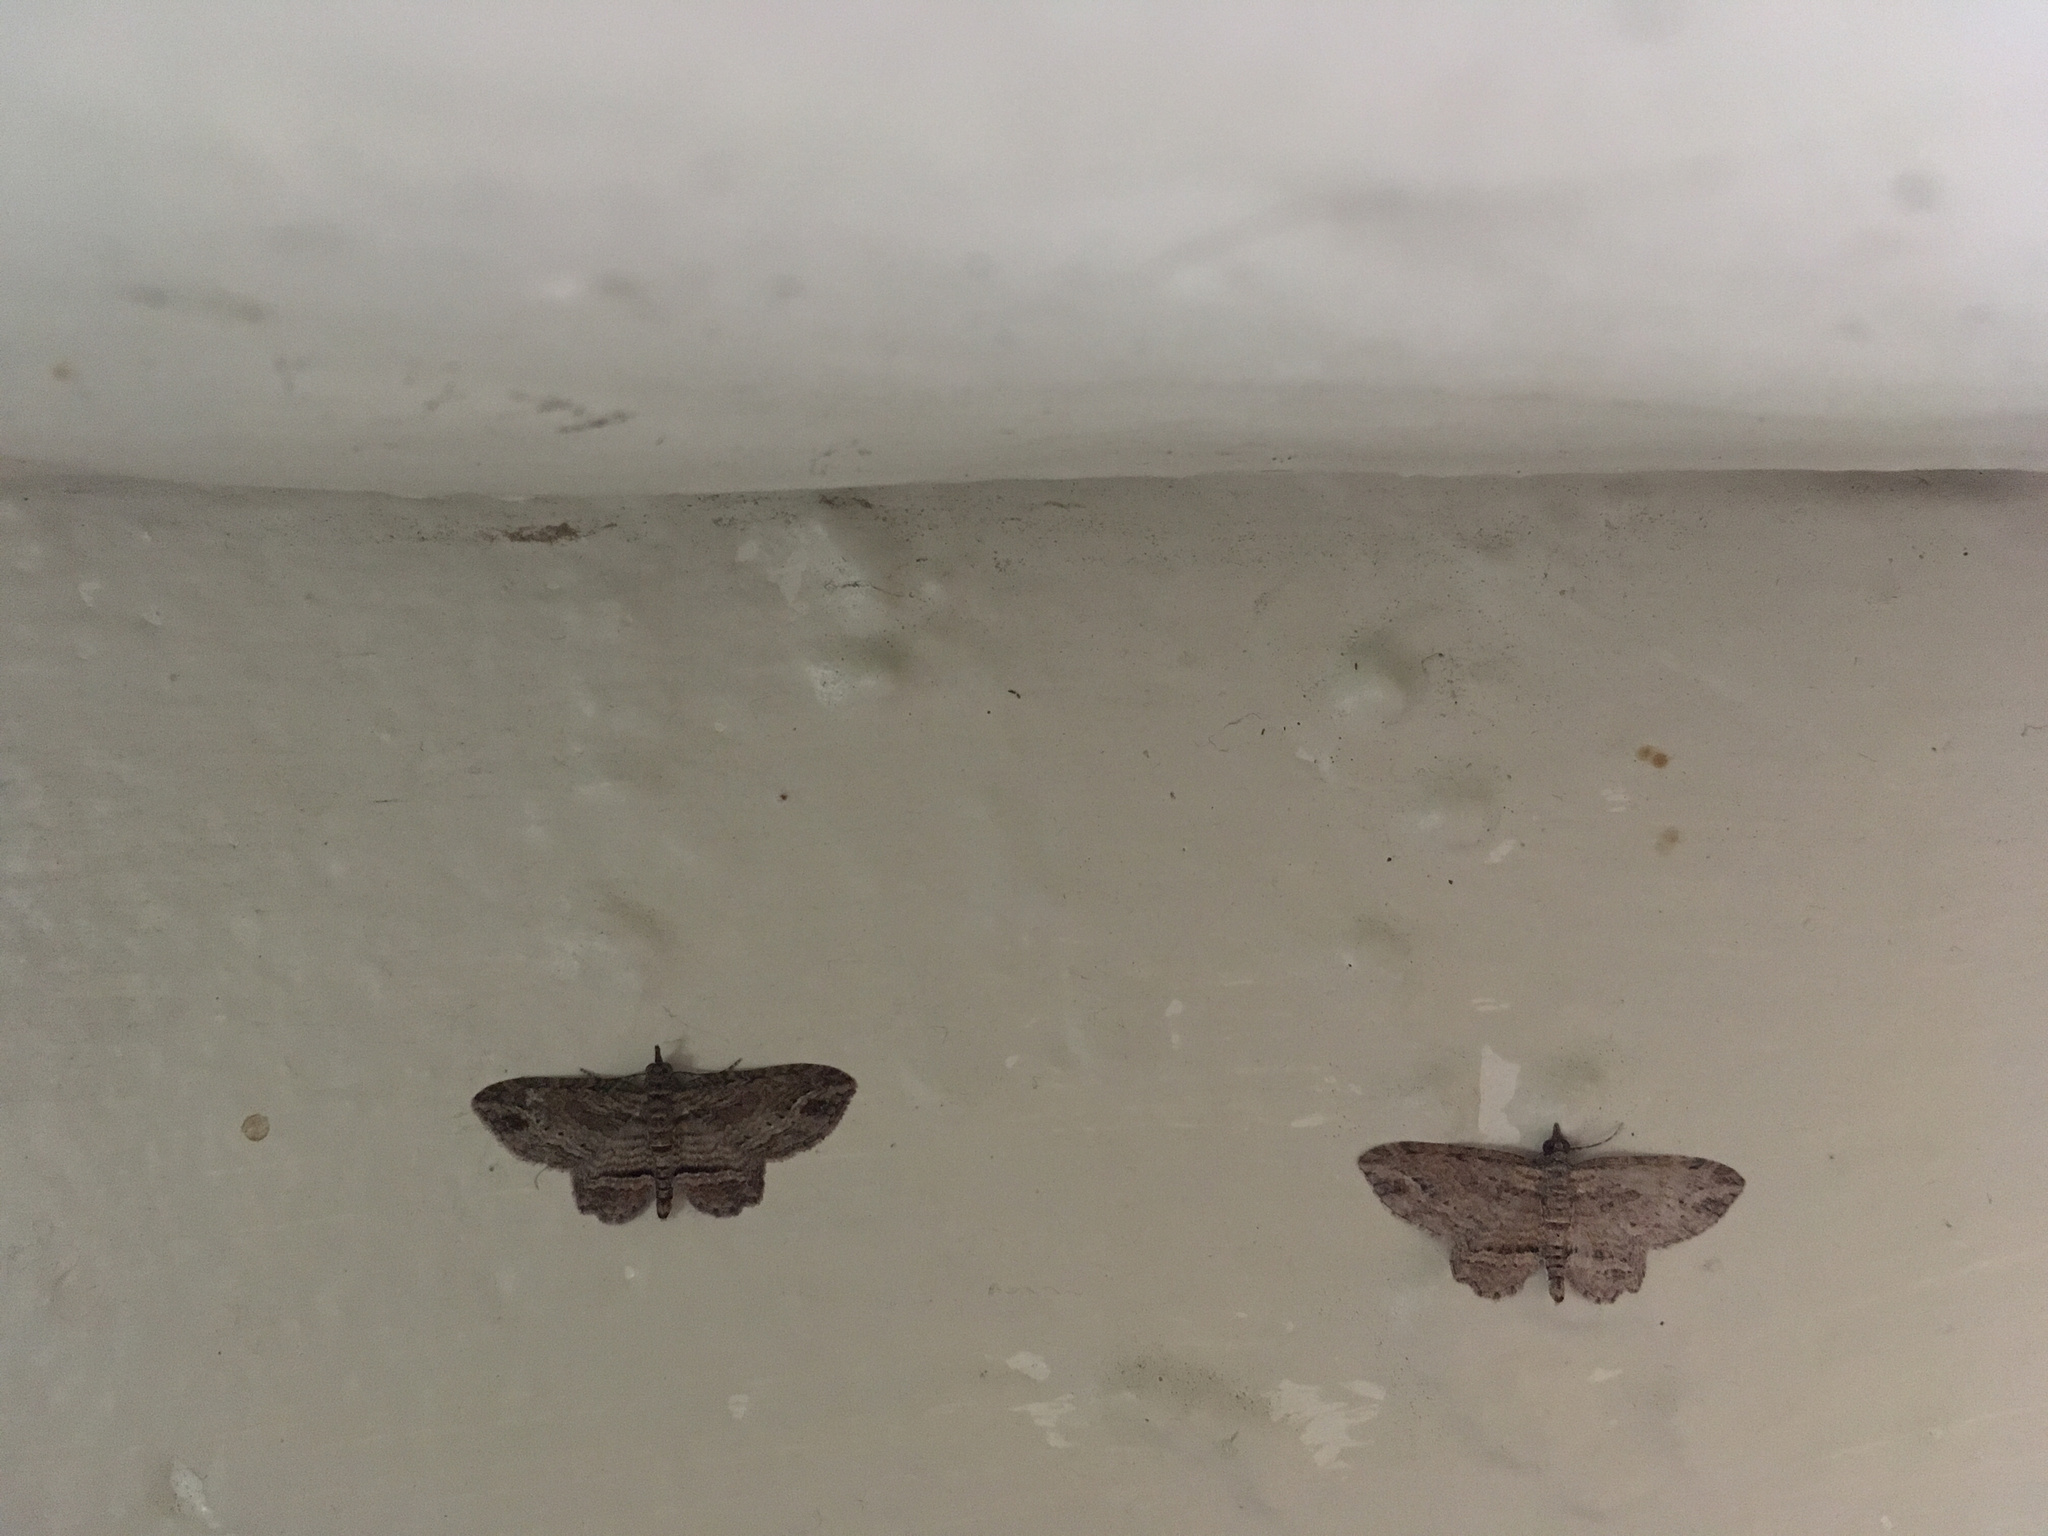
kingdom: Animalia
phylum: Arthropoda
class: Insecta
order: Lepidoptera
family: Geometridae
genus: Chloroclystis
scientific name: Chloroclystis filata
